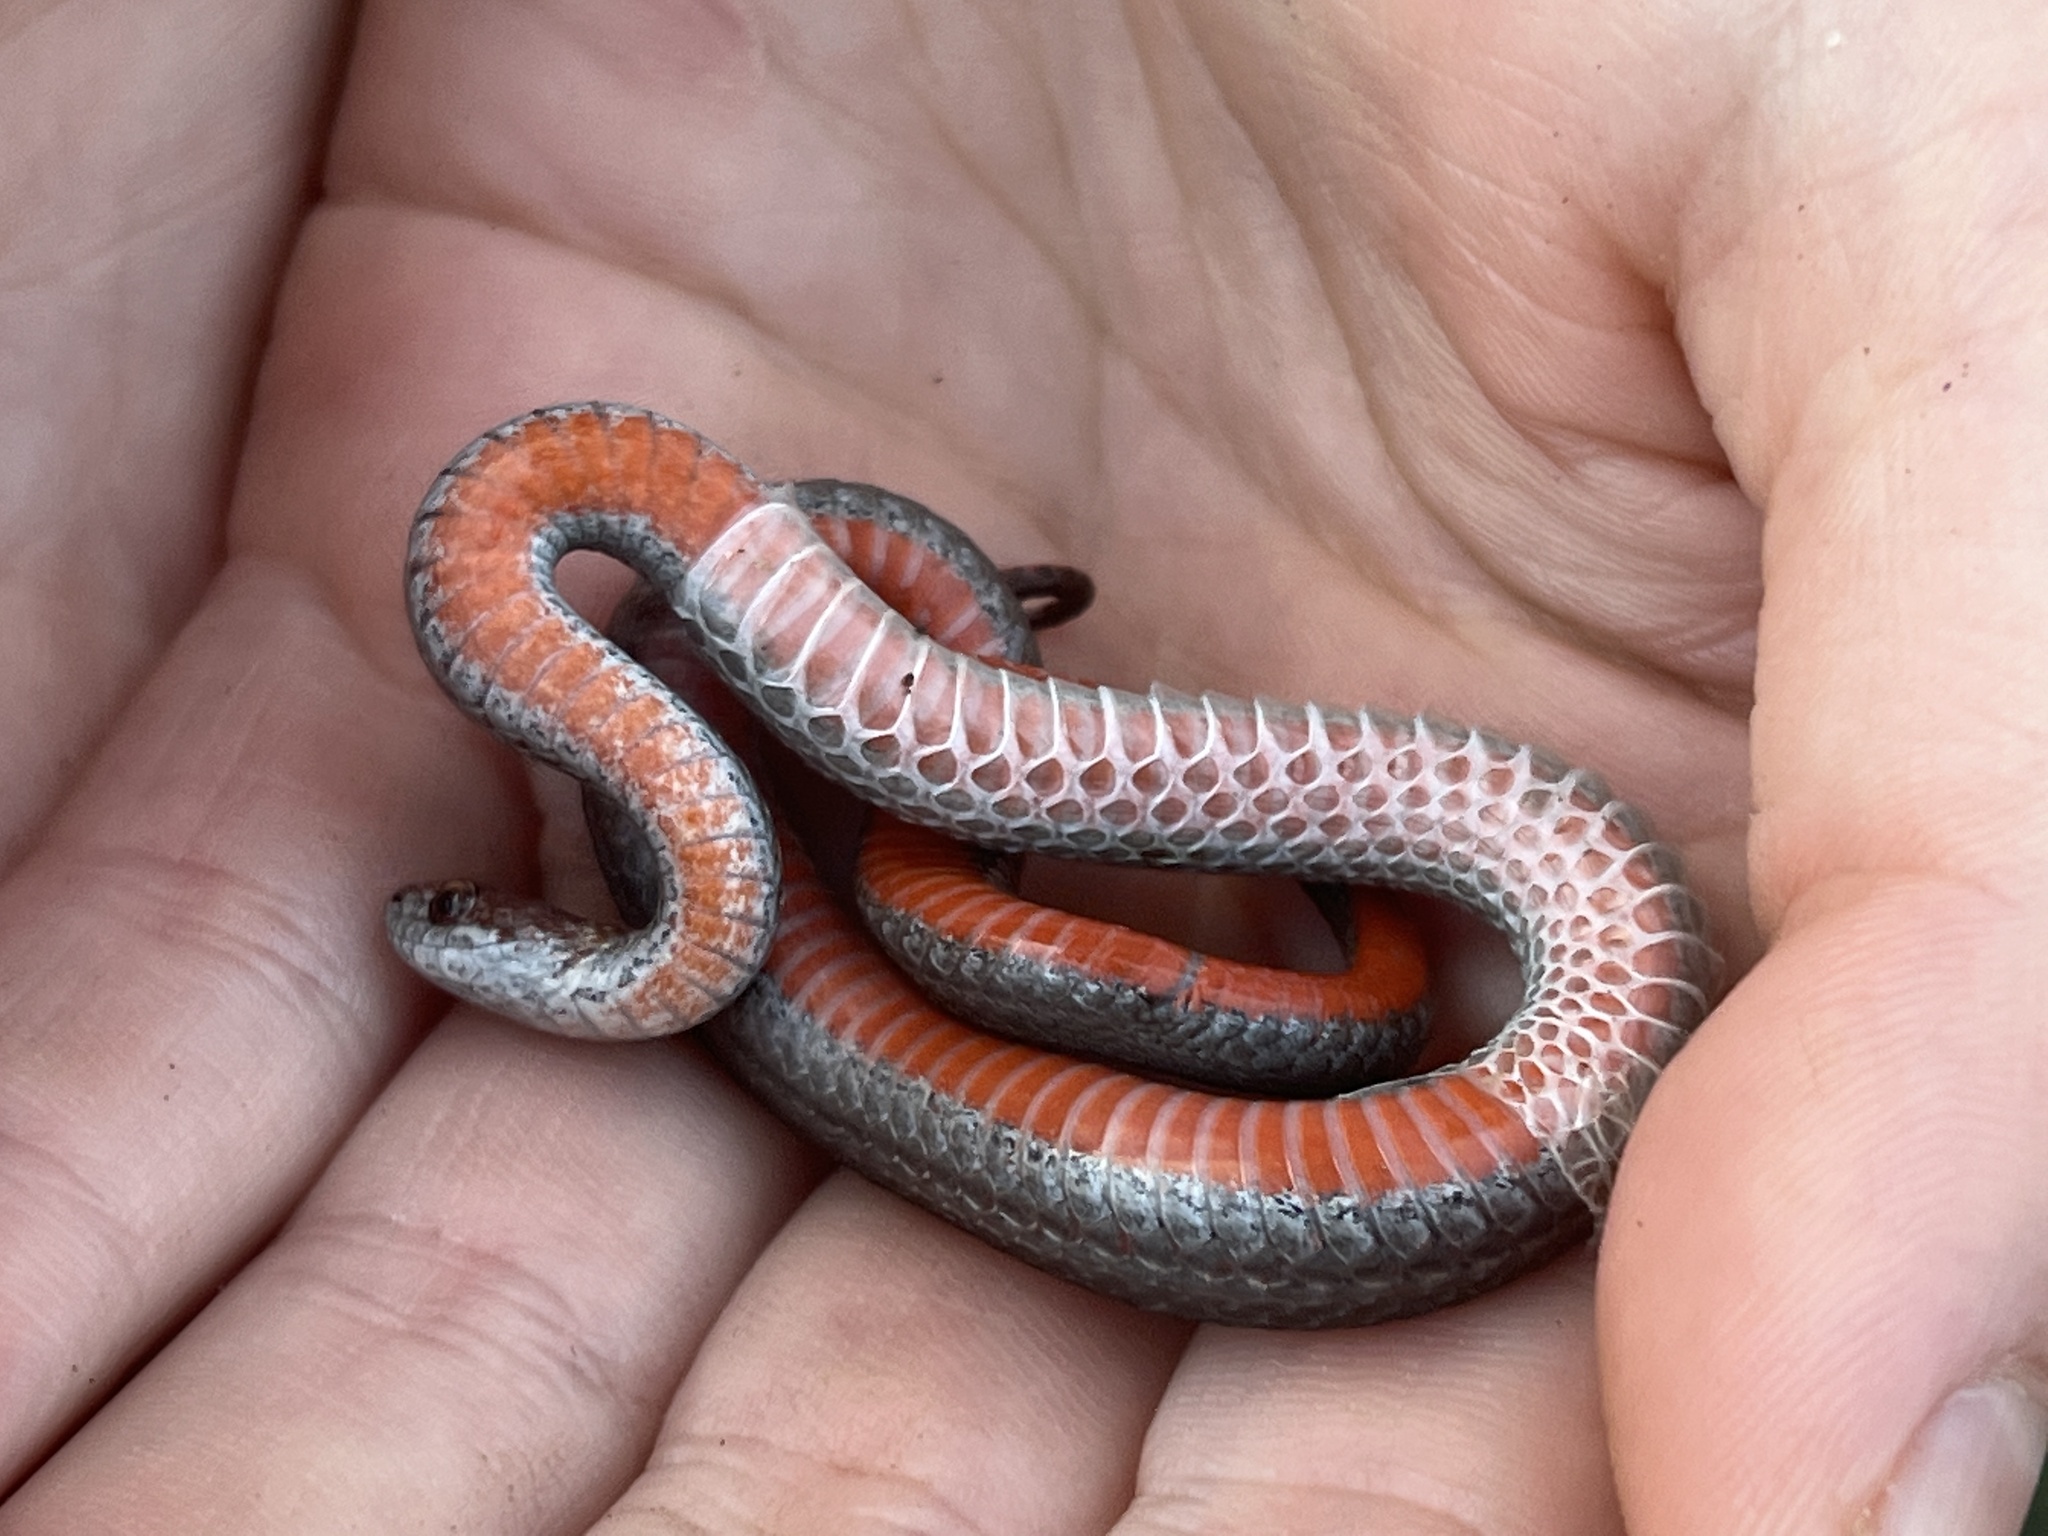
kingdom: Animalia
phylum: Chordata
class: Squamata
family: Colubridae
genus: Storeria
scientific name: Storeria occipitomaculata
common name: Redbelly snake
